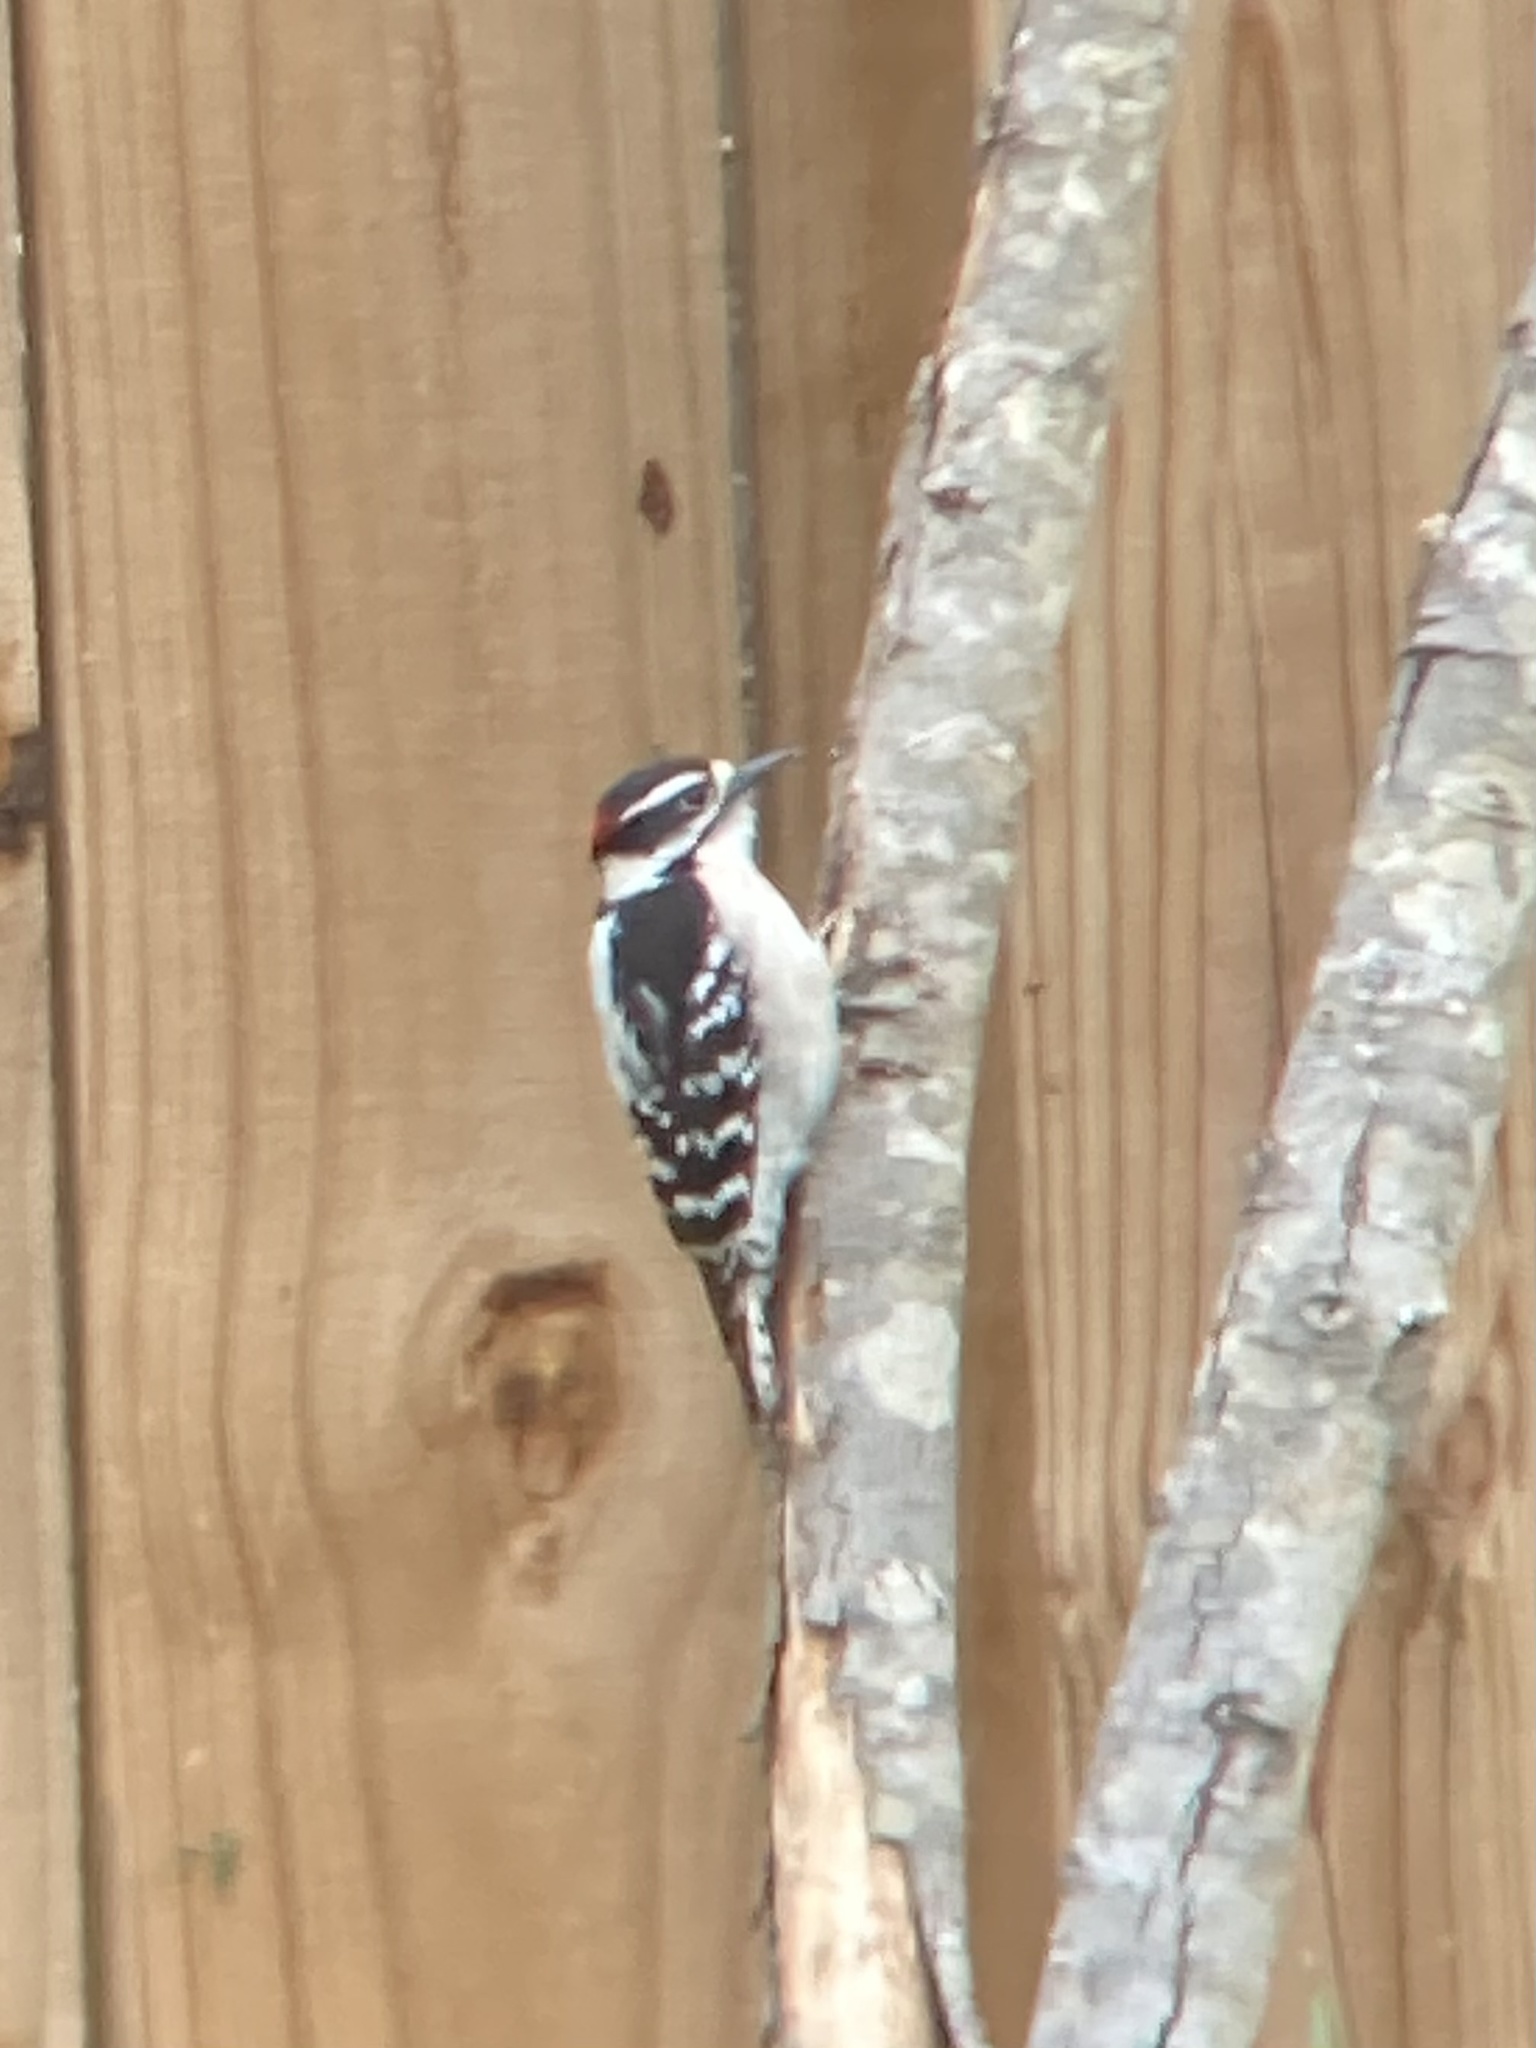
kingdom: Animalia
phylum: Chordata
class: Aves
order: Piciformes
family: Picidae
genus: Dryobates
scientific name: Dryobates pubescens
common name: Downy woodpecker
